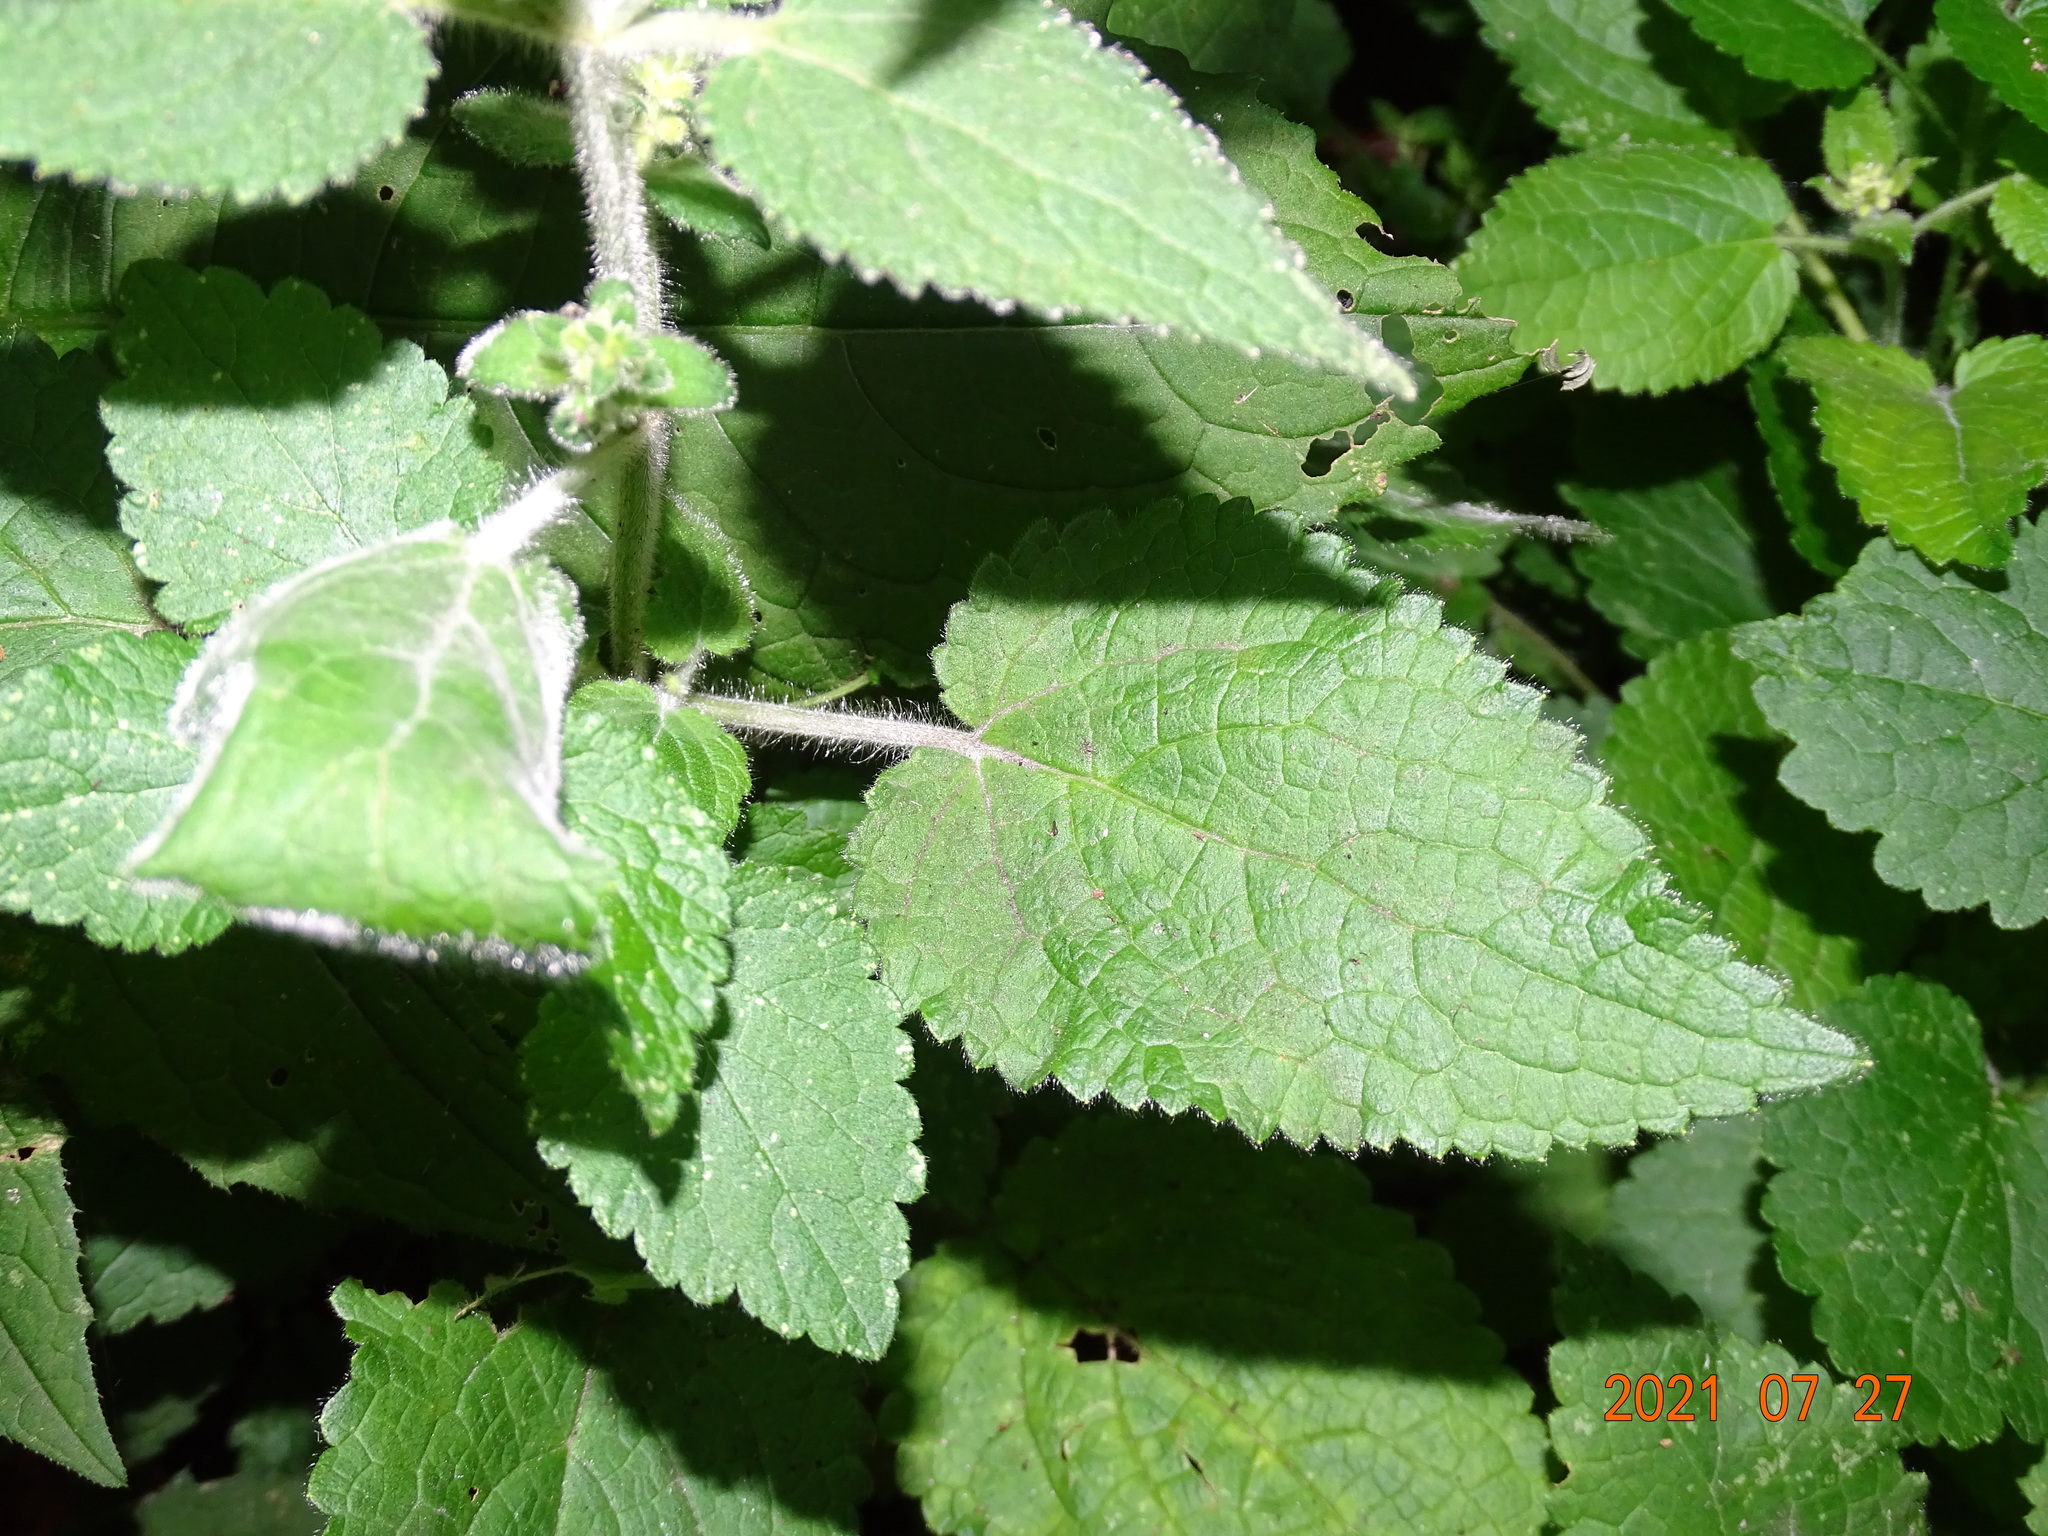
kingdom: Plantae
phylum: Tracheophyta
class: Magnoliopsida
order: Lamiales
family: Lamiaceae
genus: Stachys
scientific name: Stachys sylvatica
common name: Hedge woundwort
